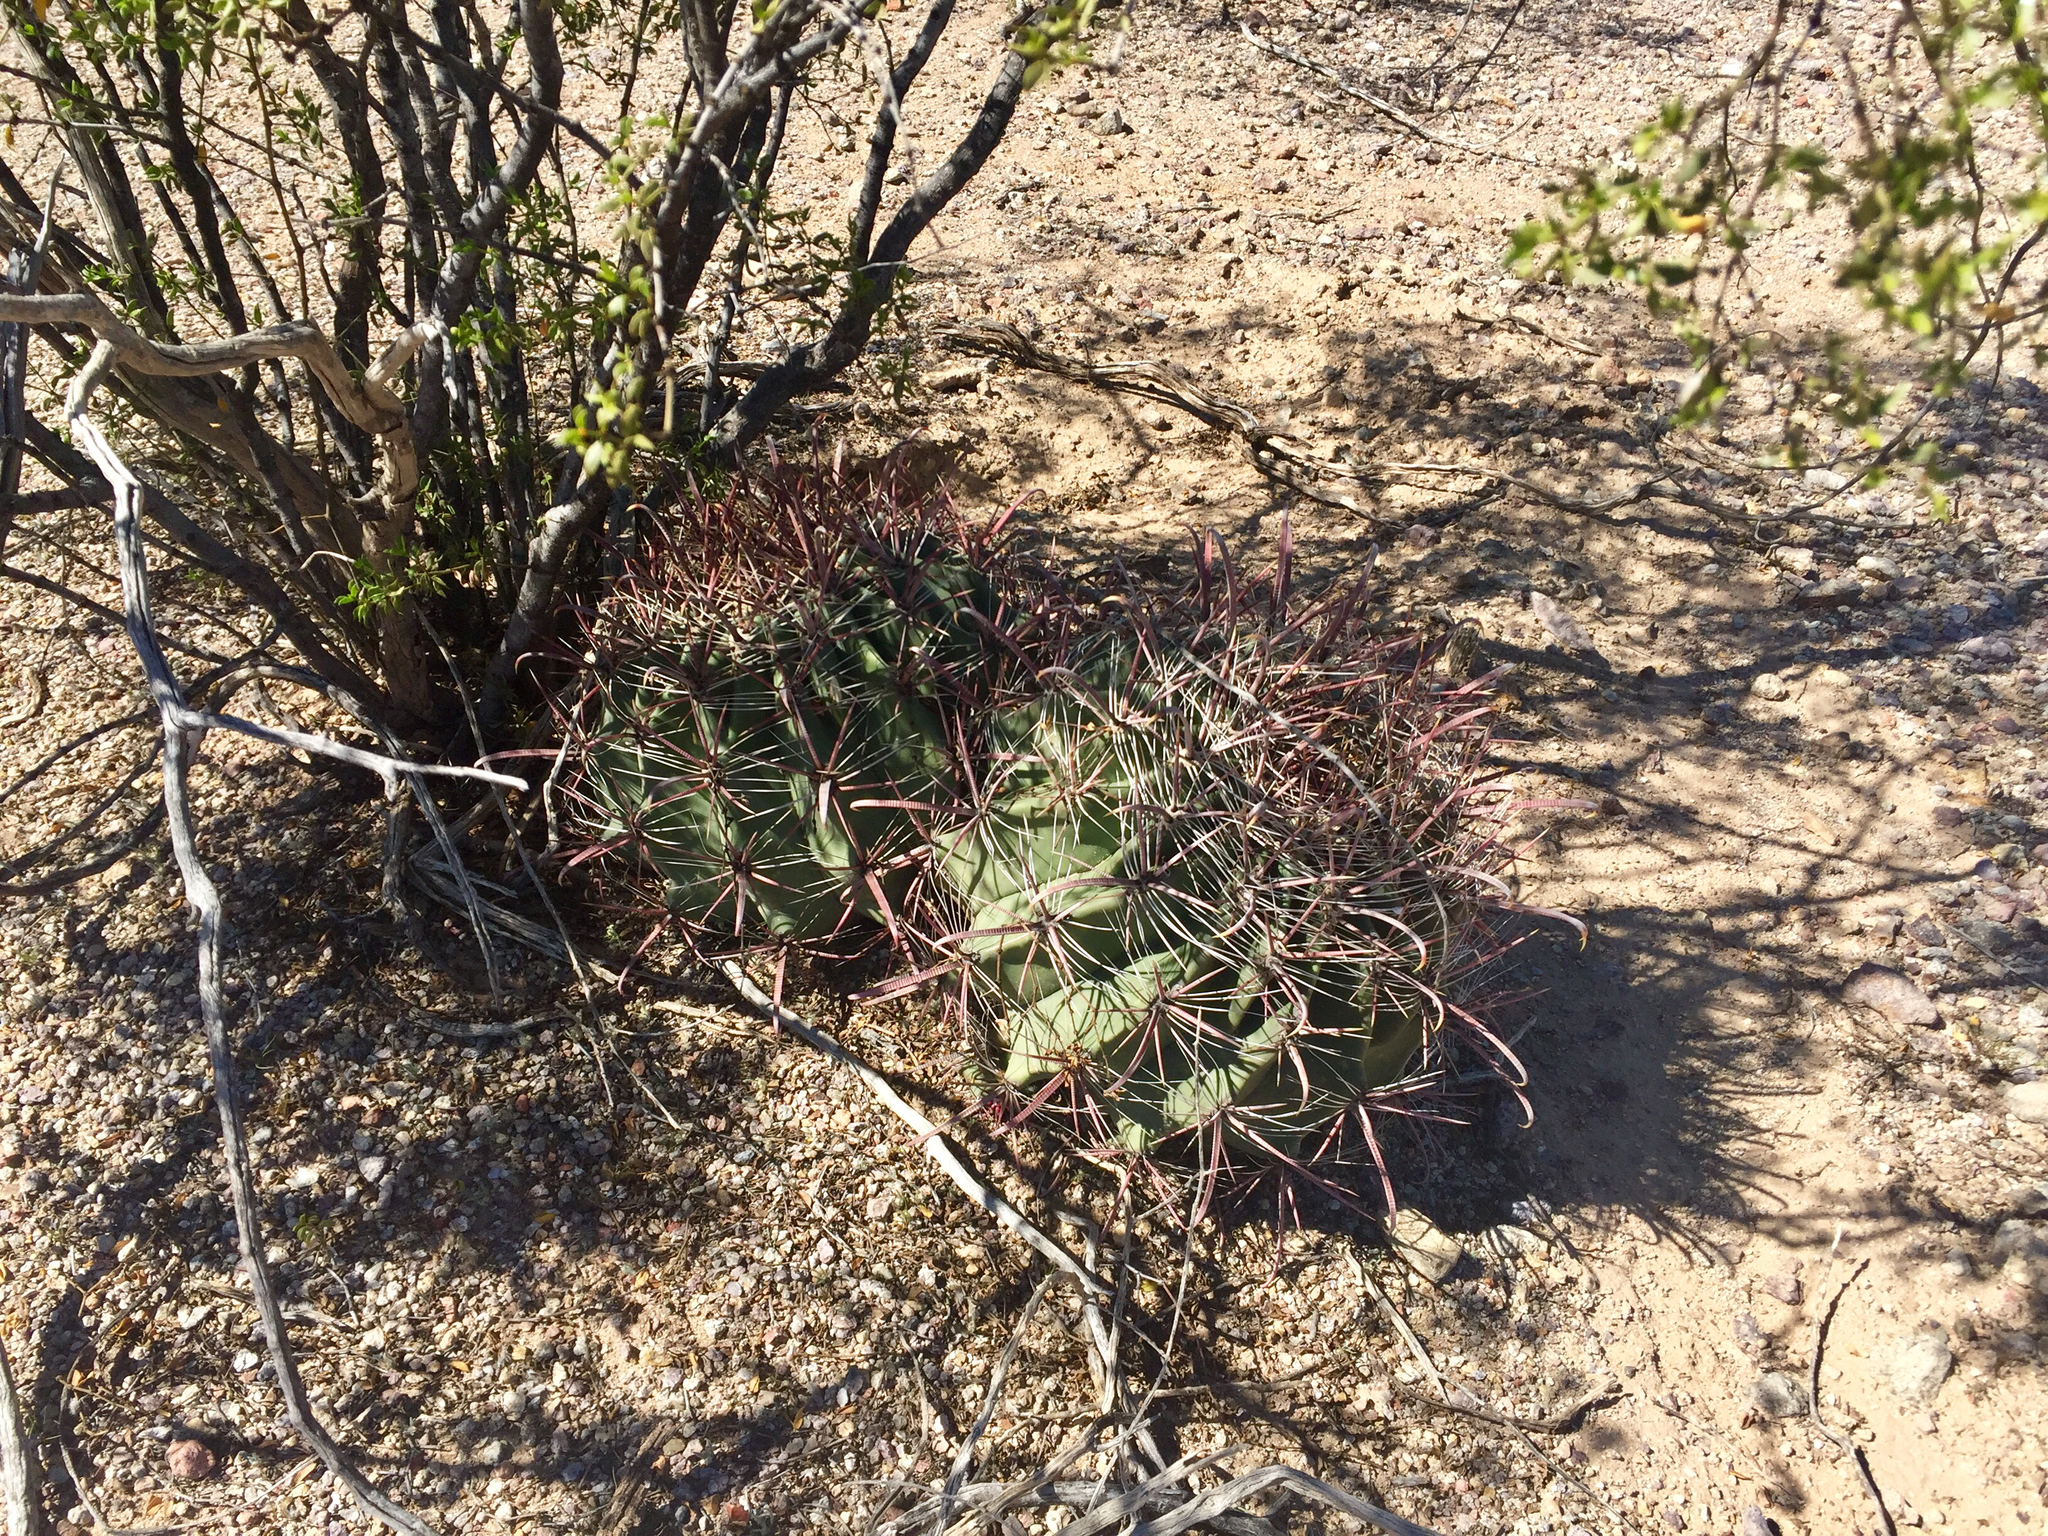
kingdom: Plantae
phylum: Tracheophyta
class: Magnoliopsida
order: Caryophyllales
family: Cactaceae
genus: Ferocactus
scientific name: Ferocactus wislizeni
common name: Candy barrel cactus
